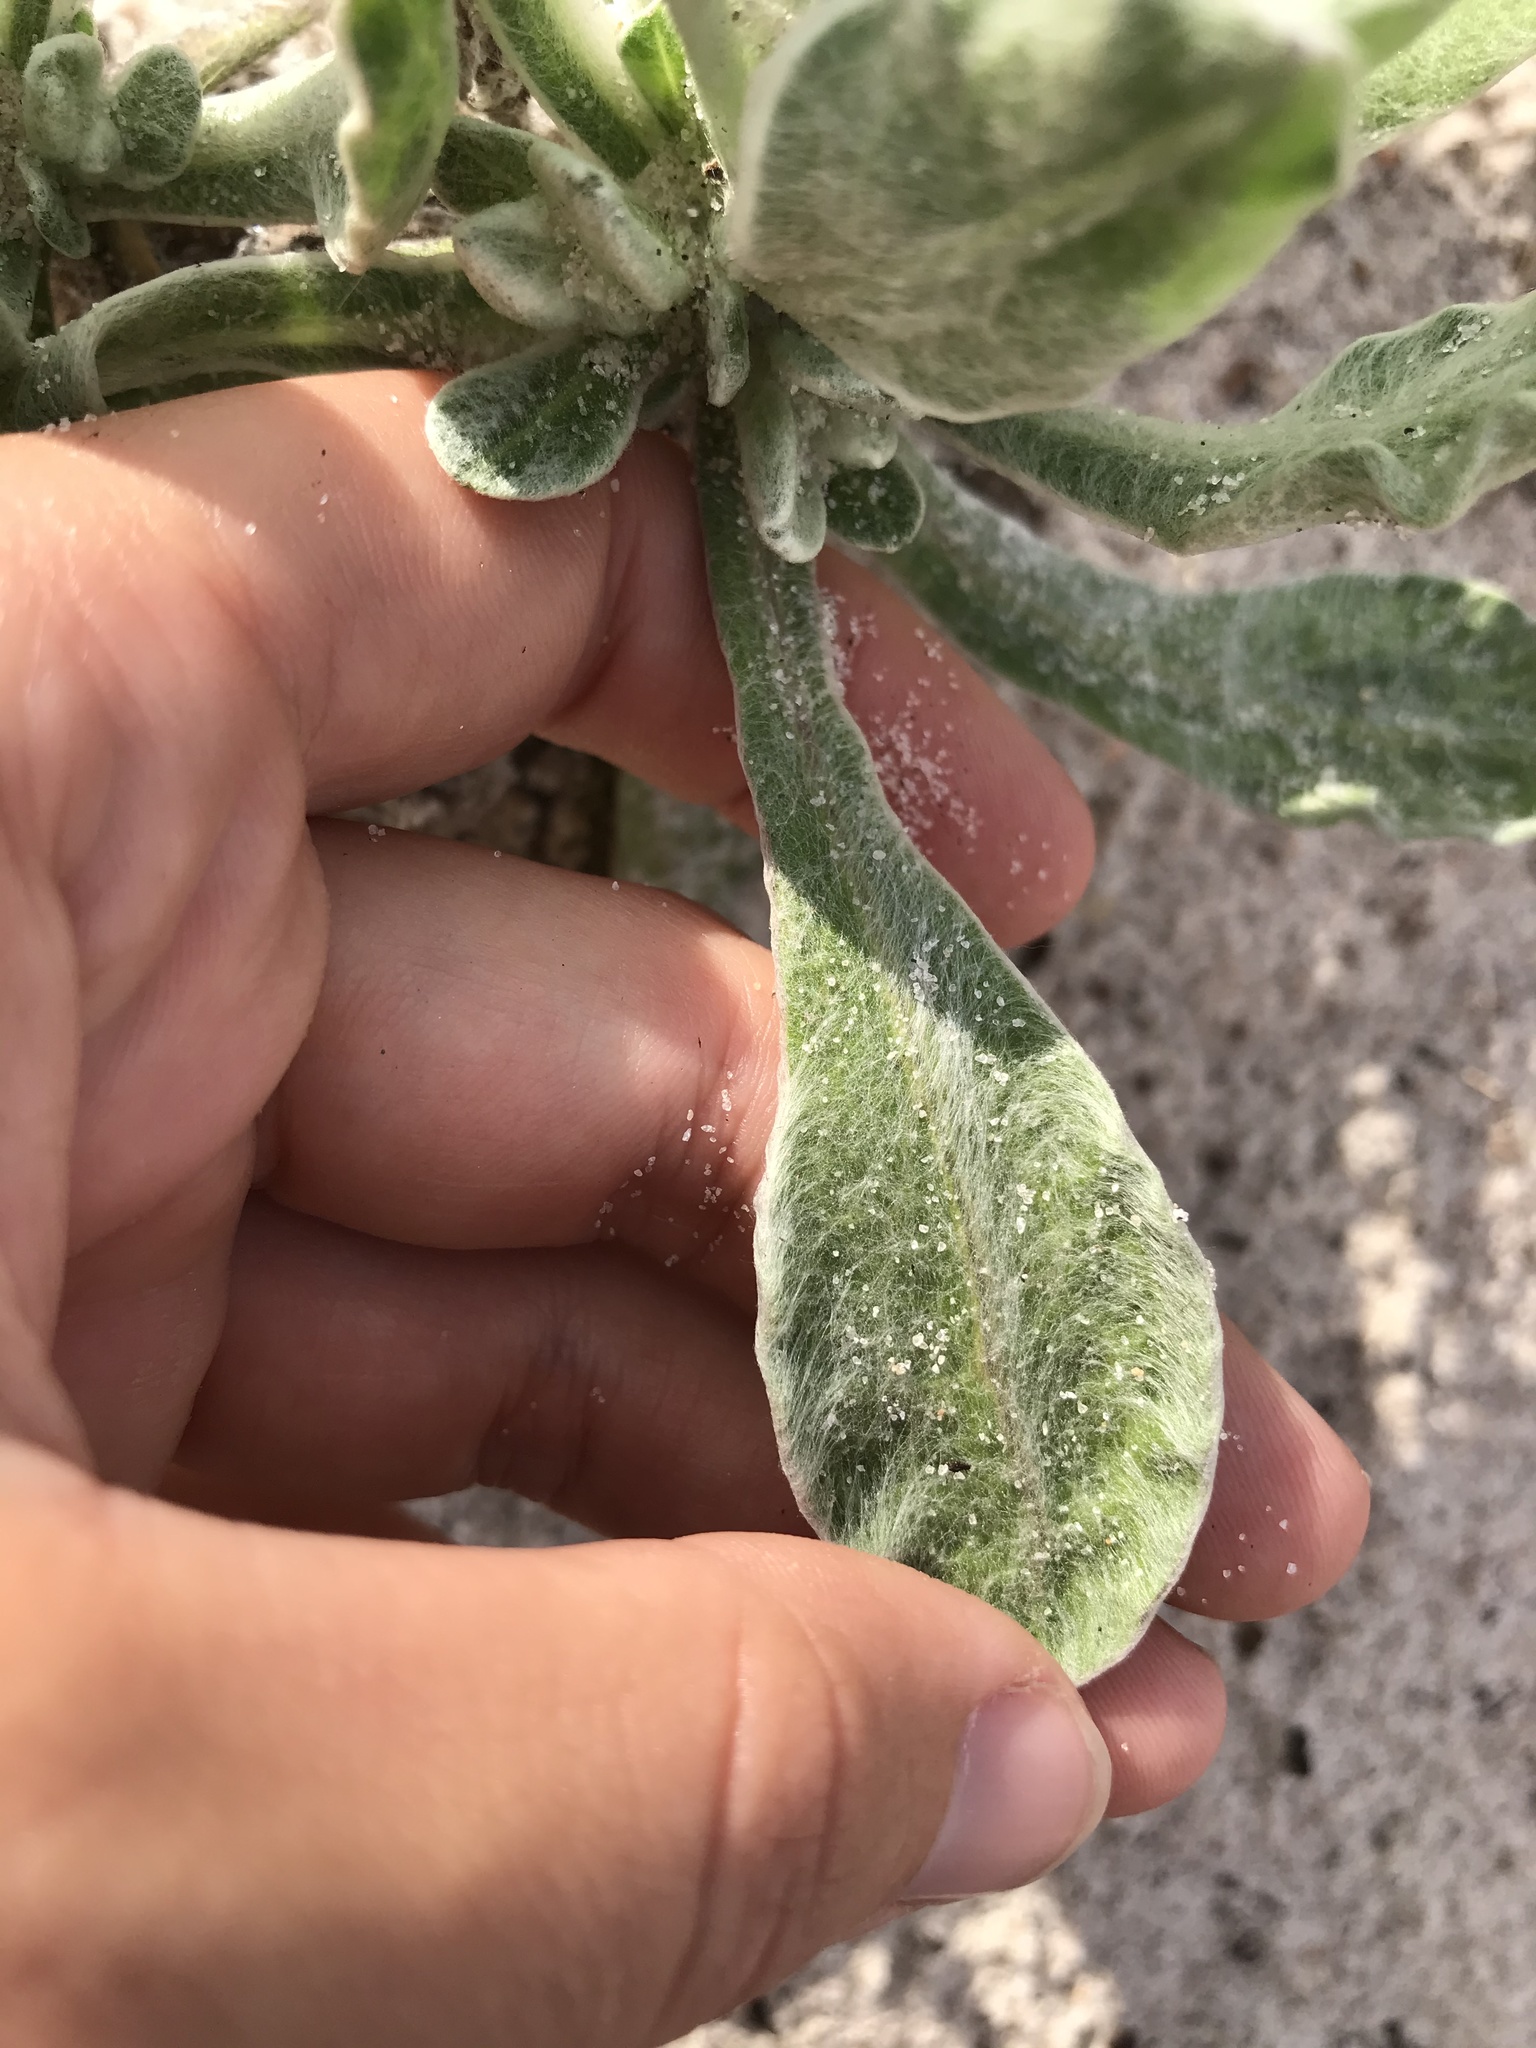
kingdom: Plantae
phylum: Tracheophyta
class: Magnoliopsida
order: Asterales
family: Asteraceae
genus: Chrysopsis
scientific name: Chrysopsis godfreyi
